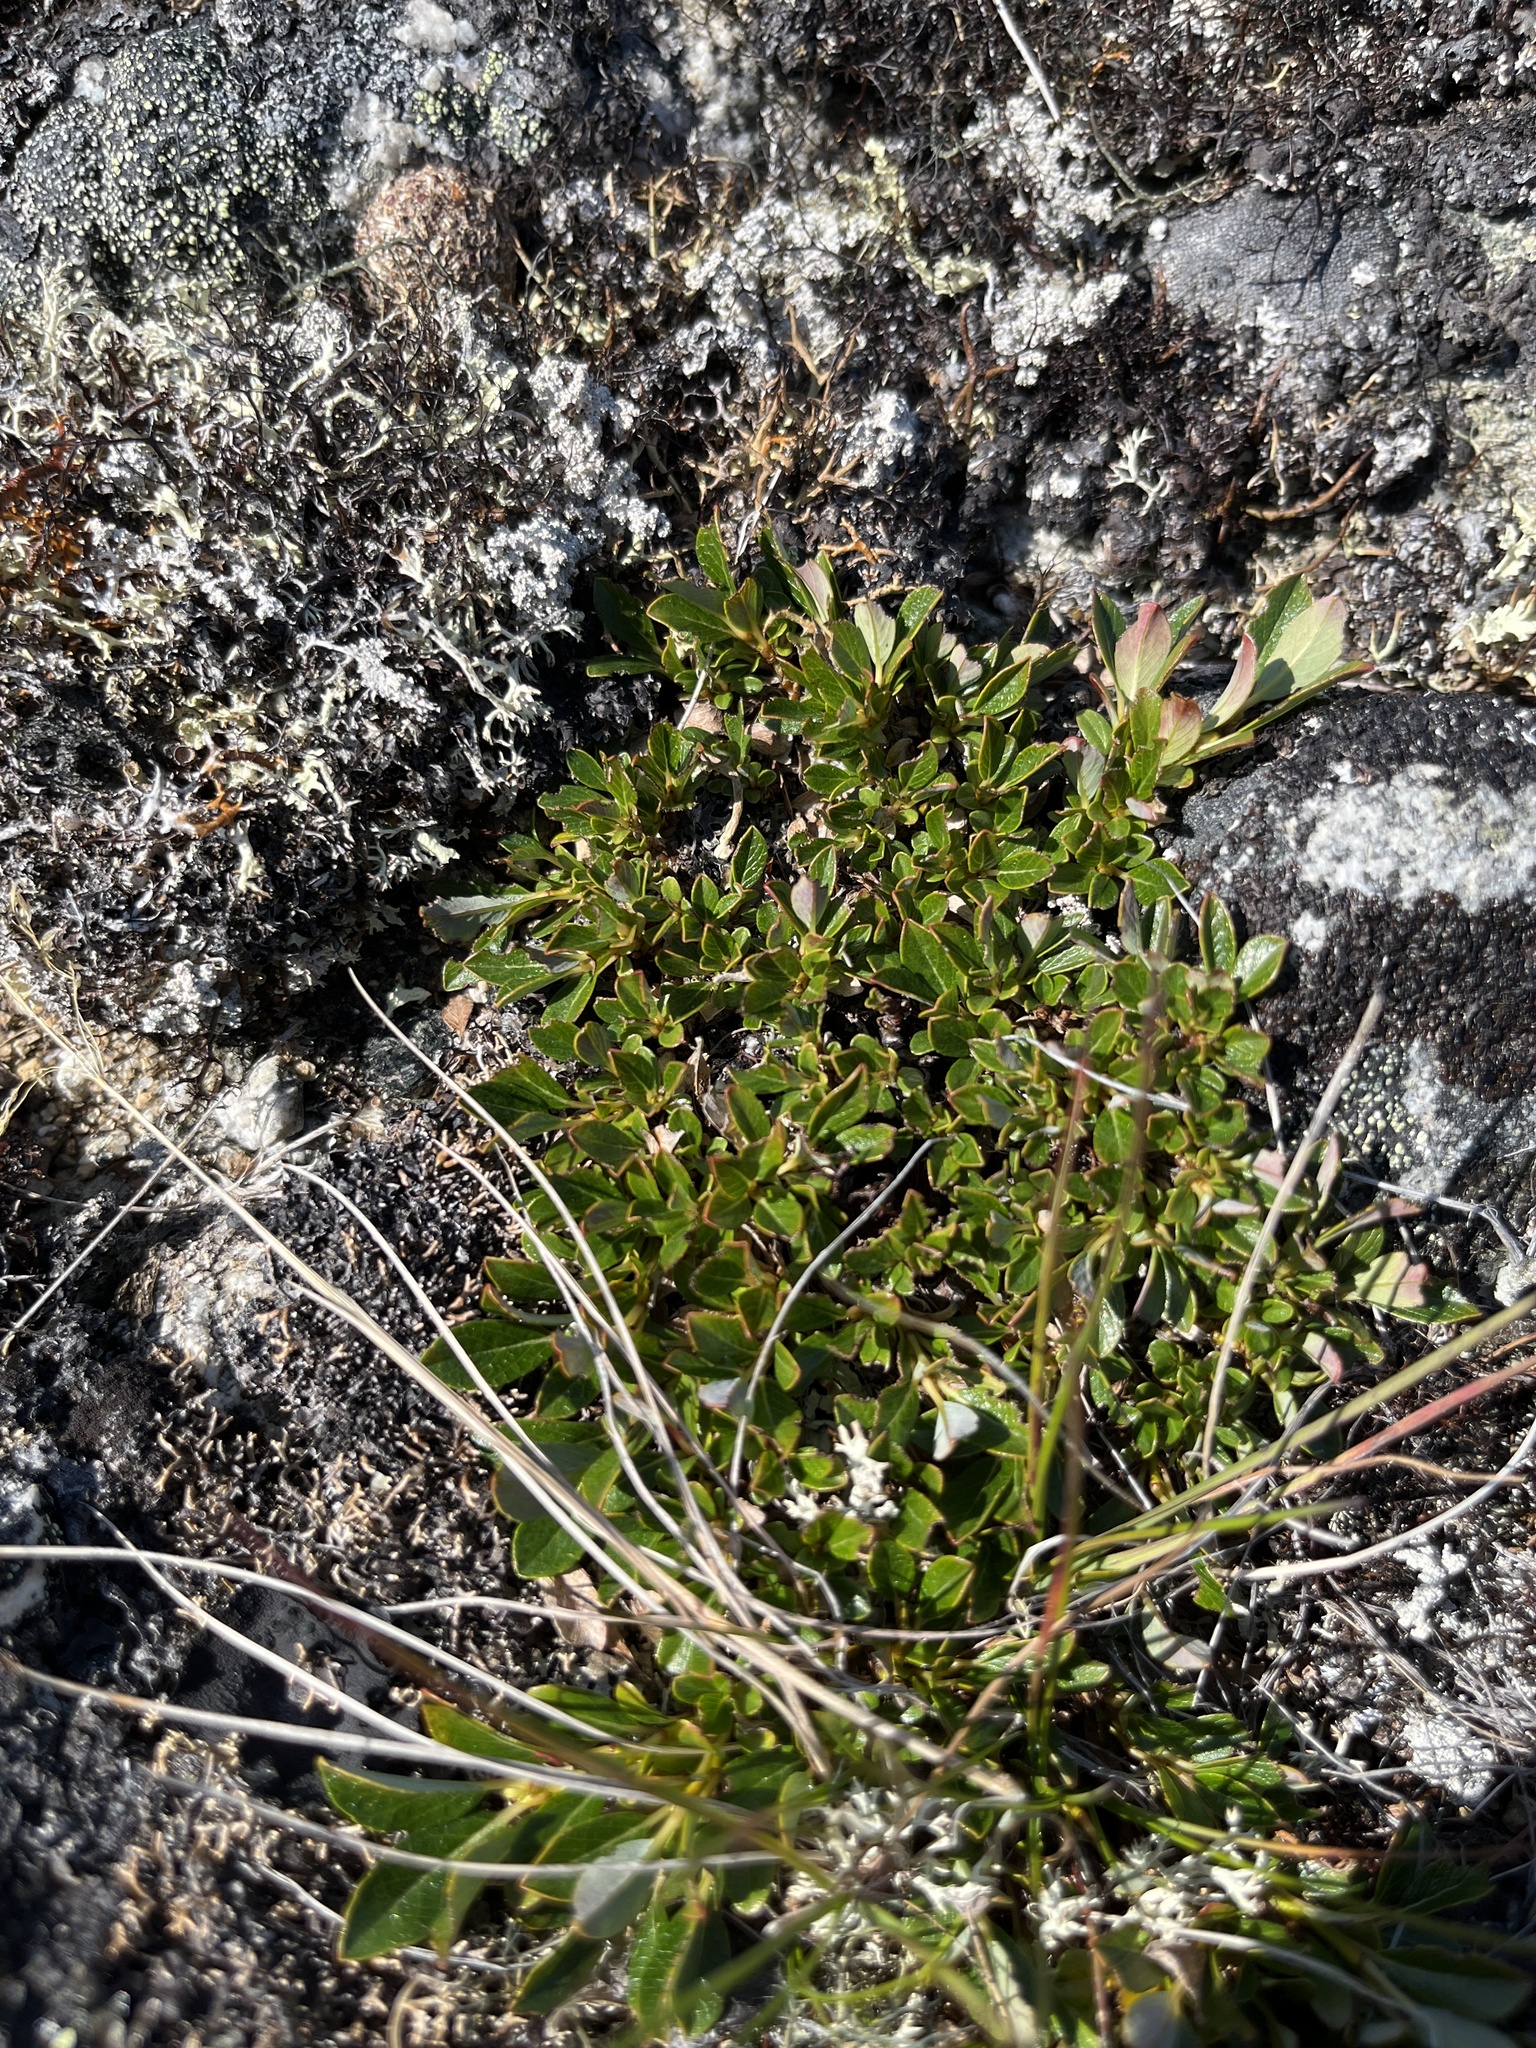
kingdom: Plantae
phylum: Tracheophyta
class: Magnoliopsida
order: Malpighiales
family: Salicaceae
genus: Salix
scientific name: Salix uva-ursi
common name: Bearberry willow
